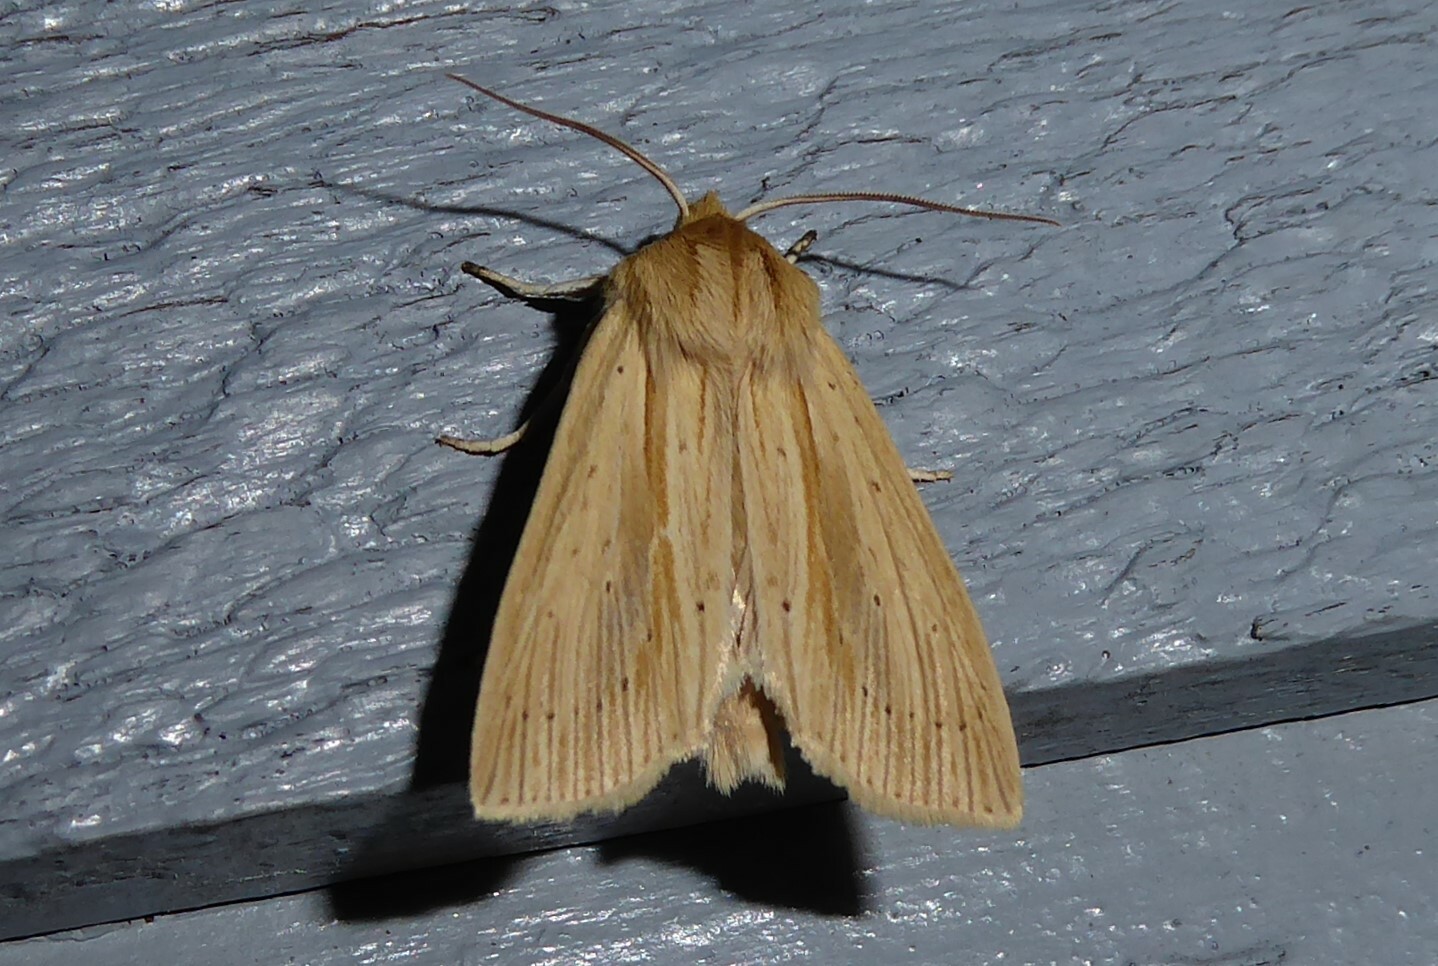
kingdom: Animalia
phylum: Arthropoda
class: Insecta
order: Lepidoptera
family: Noctuidae
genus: Ichneutica
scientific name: Ichneutica semivittata
